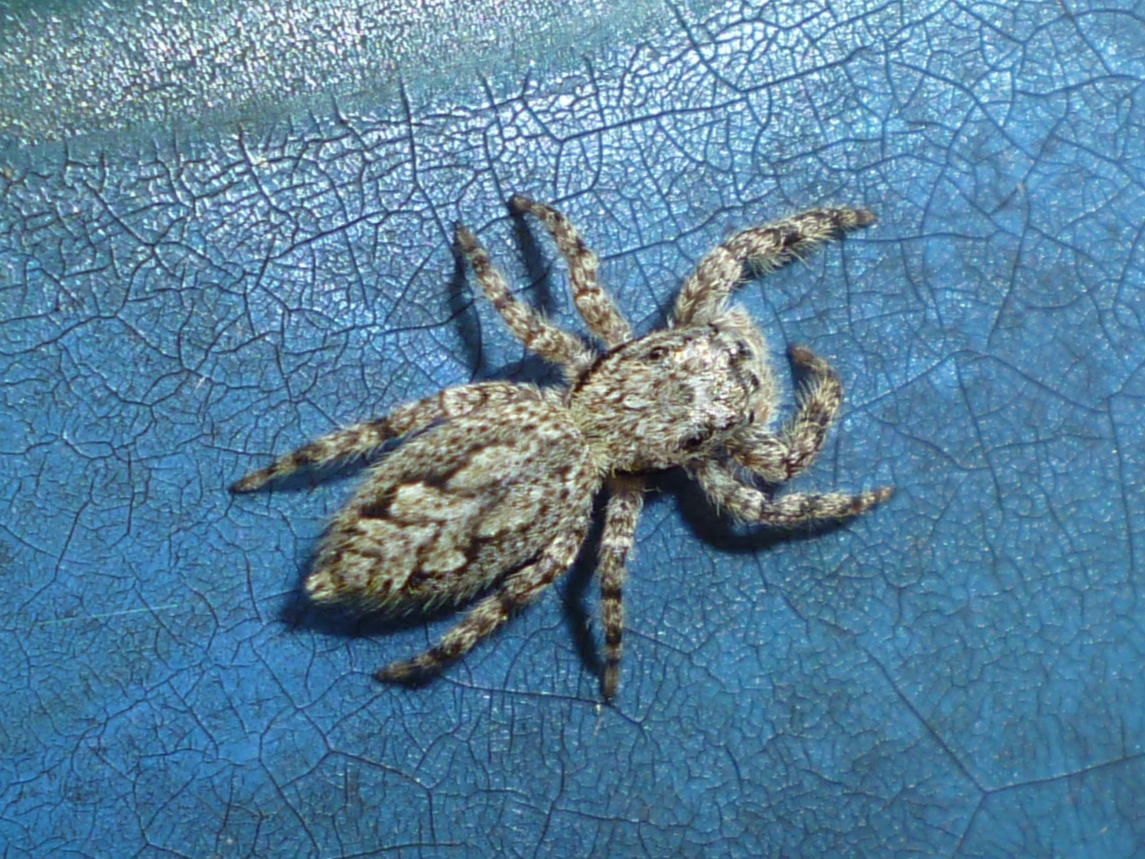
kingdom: Animalia
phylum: Arthropoda
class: Arachnida
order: Araneae
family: Salticidae
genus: Platycryptus
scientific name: Platycryptus undatus
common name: Tan jumping spider
